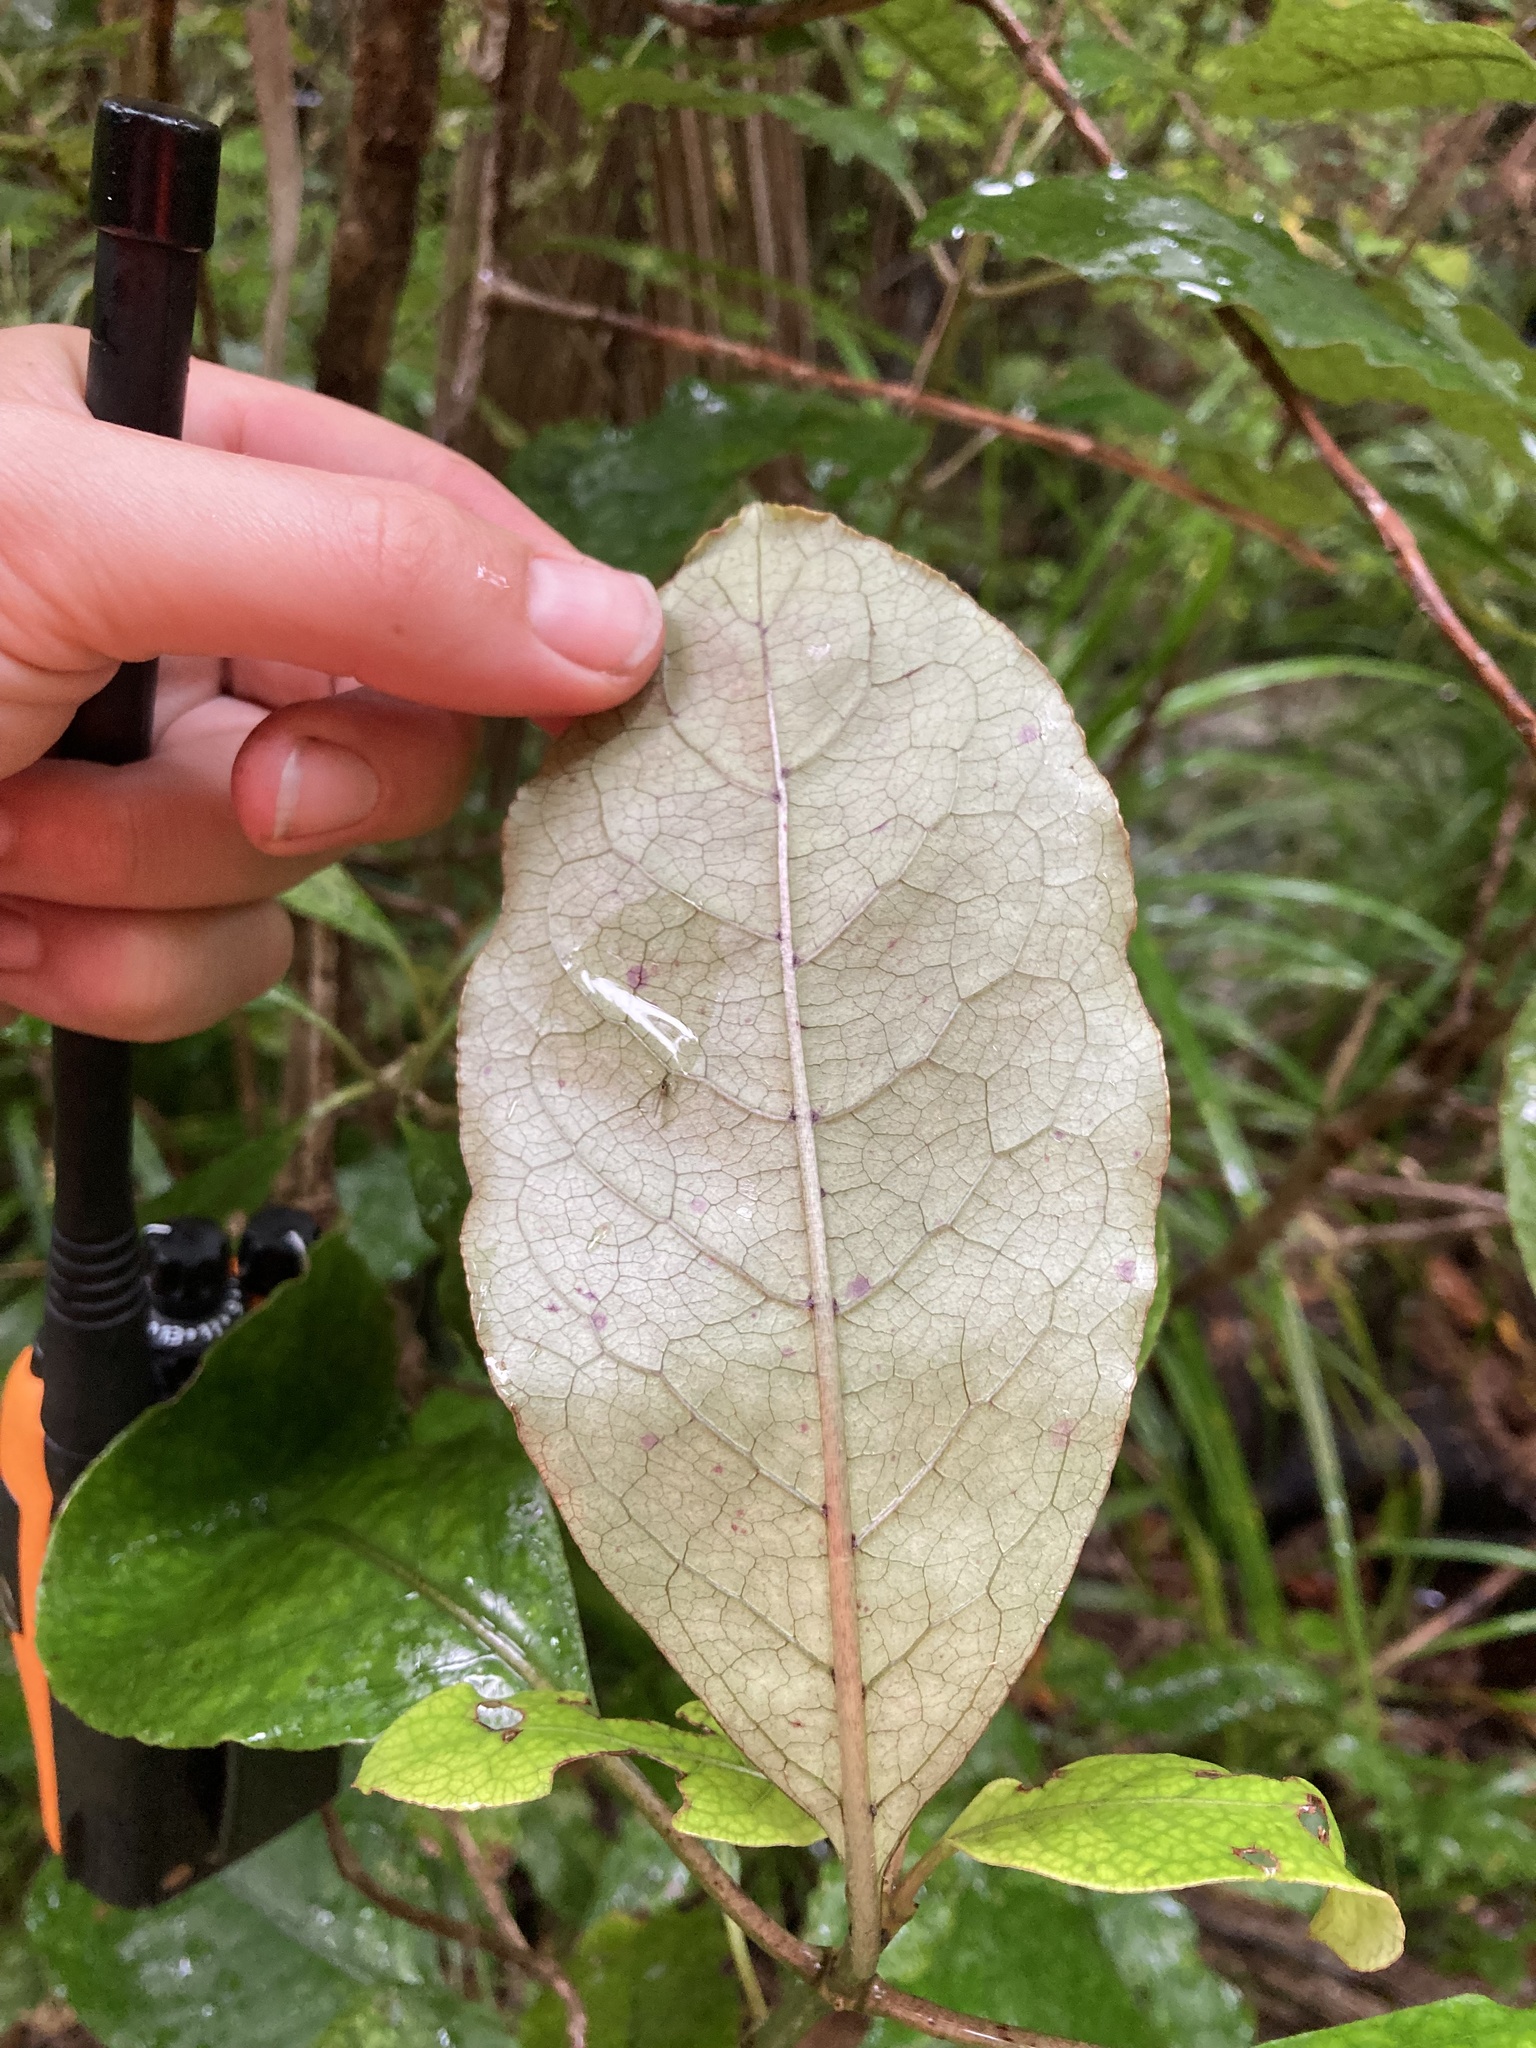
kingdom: Plantae
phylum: Tracheophyta
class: Magnoliopsida
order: Gentianales
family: Rubiaceae
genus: Coprosma
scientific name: Coprosma autumnalis
